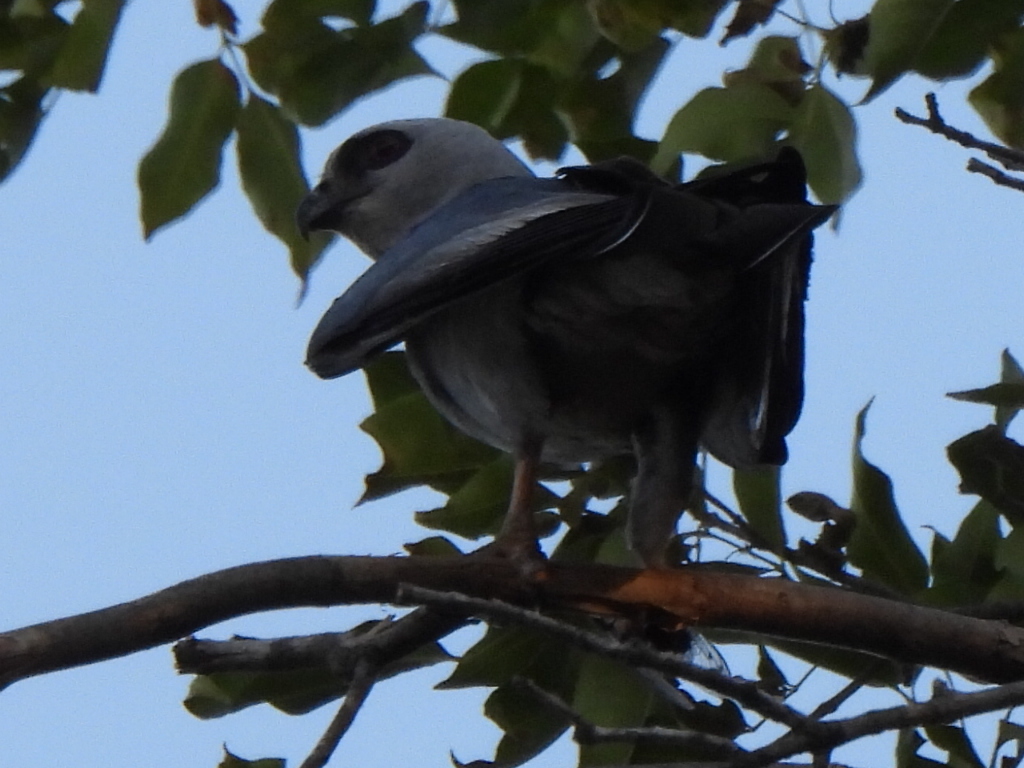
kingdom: Animalia
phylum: Chordata
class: Aves
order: Accipitriformes
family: Accipitridae
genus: Ictinia
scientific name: Ictinia mississippiensis
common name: Mississippi kite
